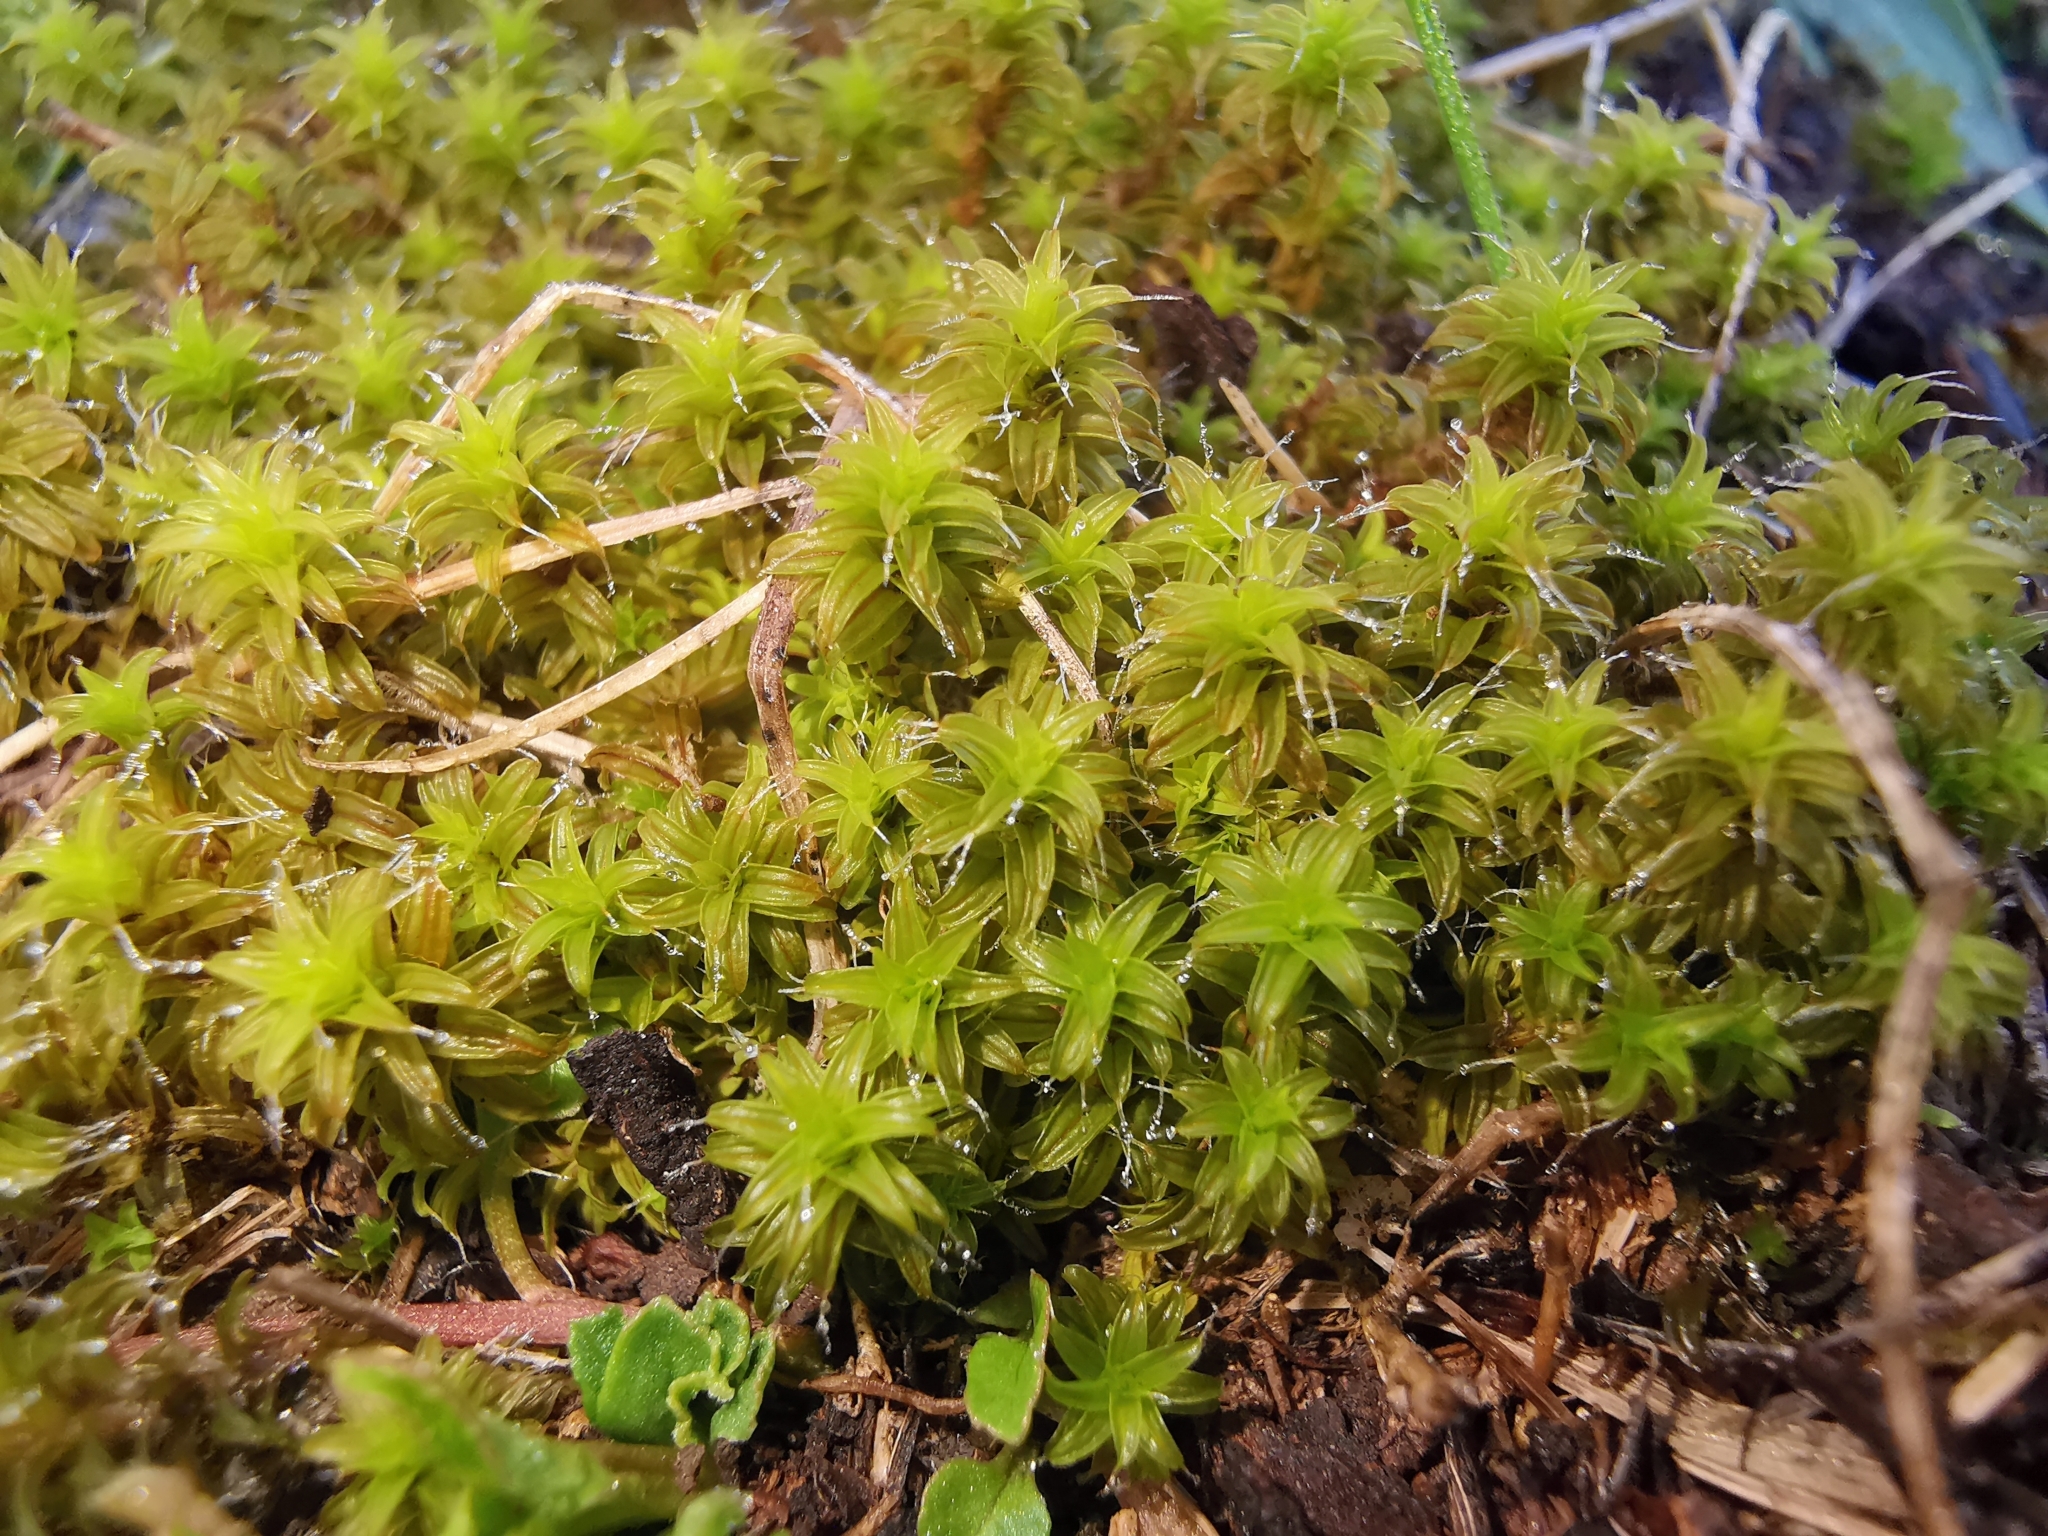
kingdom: Plantae
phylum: Bryophyta
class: Bryopsida
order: Pottiales
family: Pottiaceae
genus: Syntrichia
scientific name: Syntrichia ruralis
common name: Sidewalk screw moss
